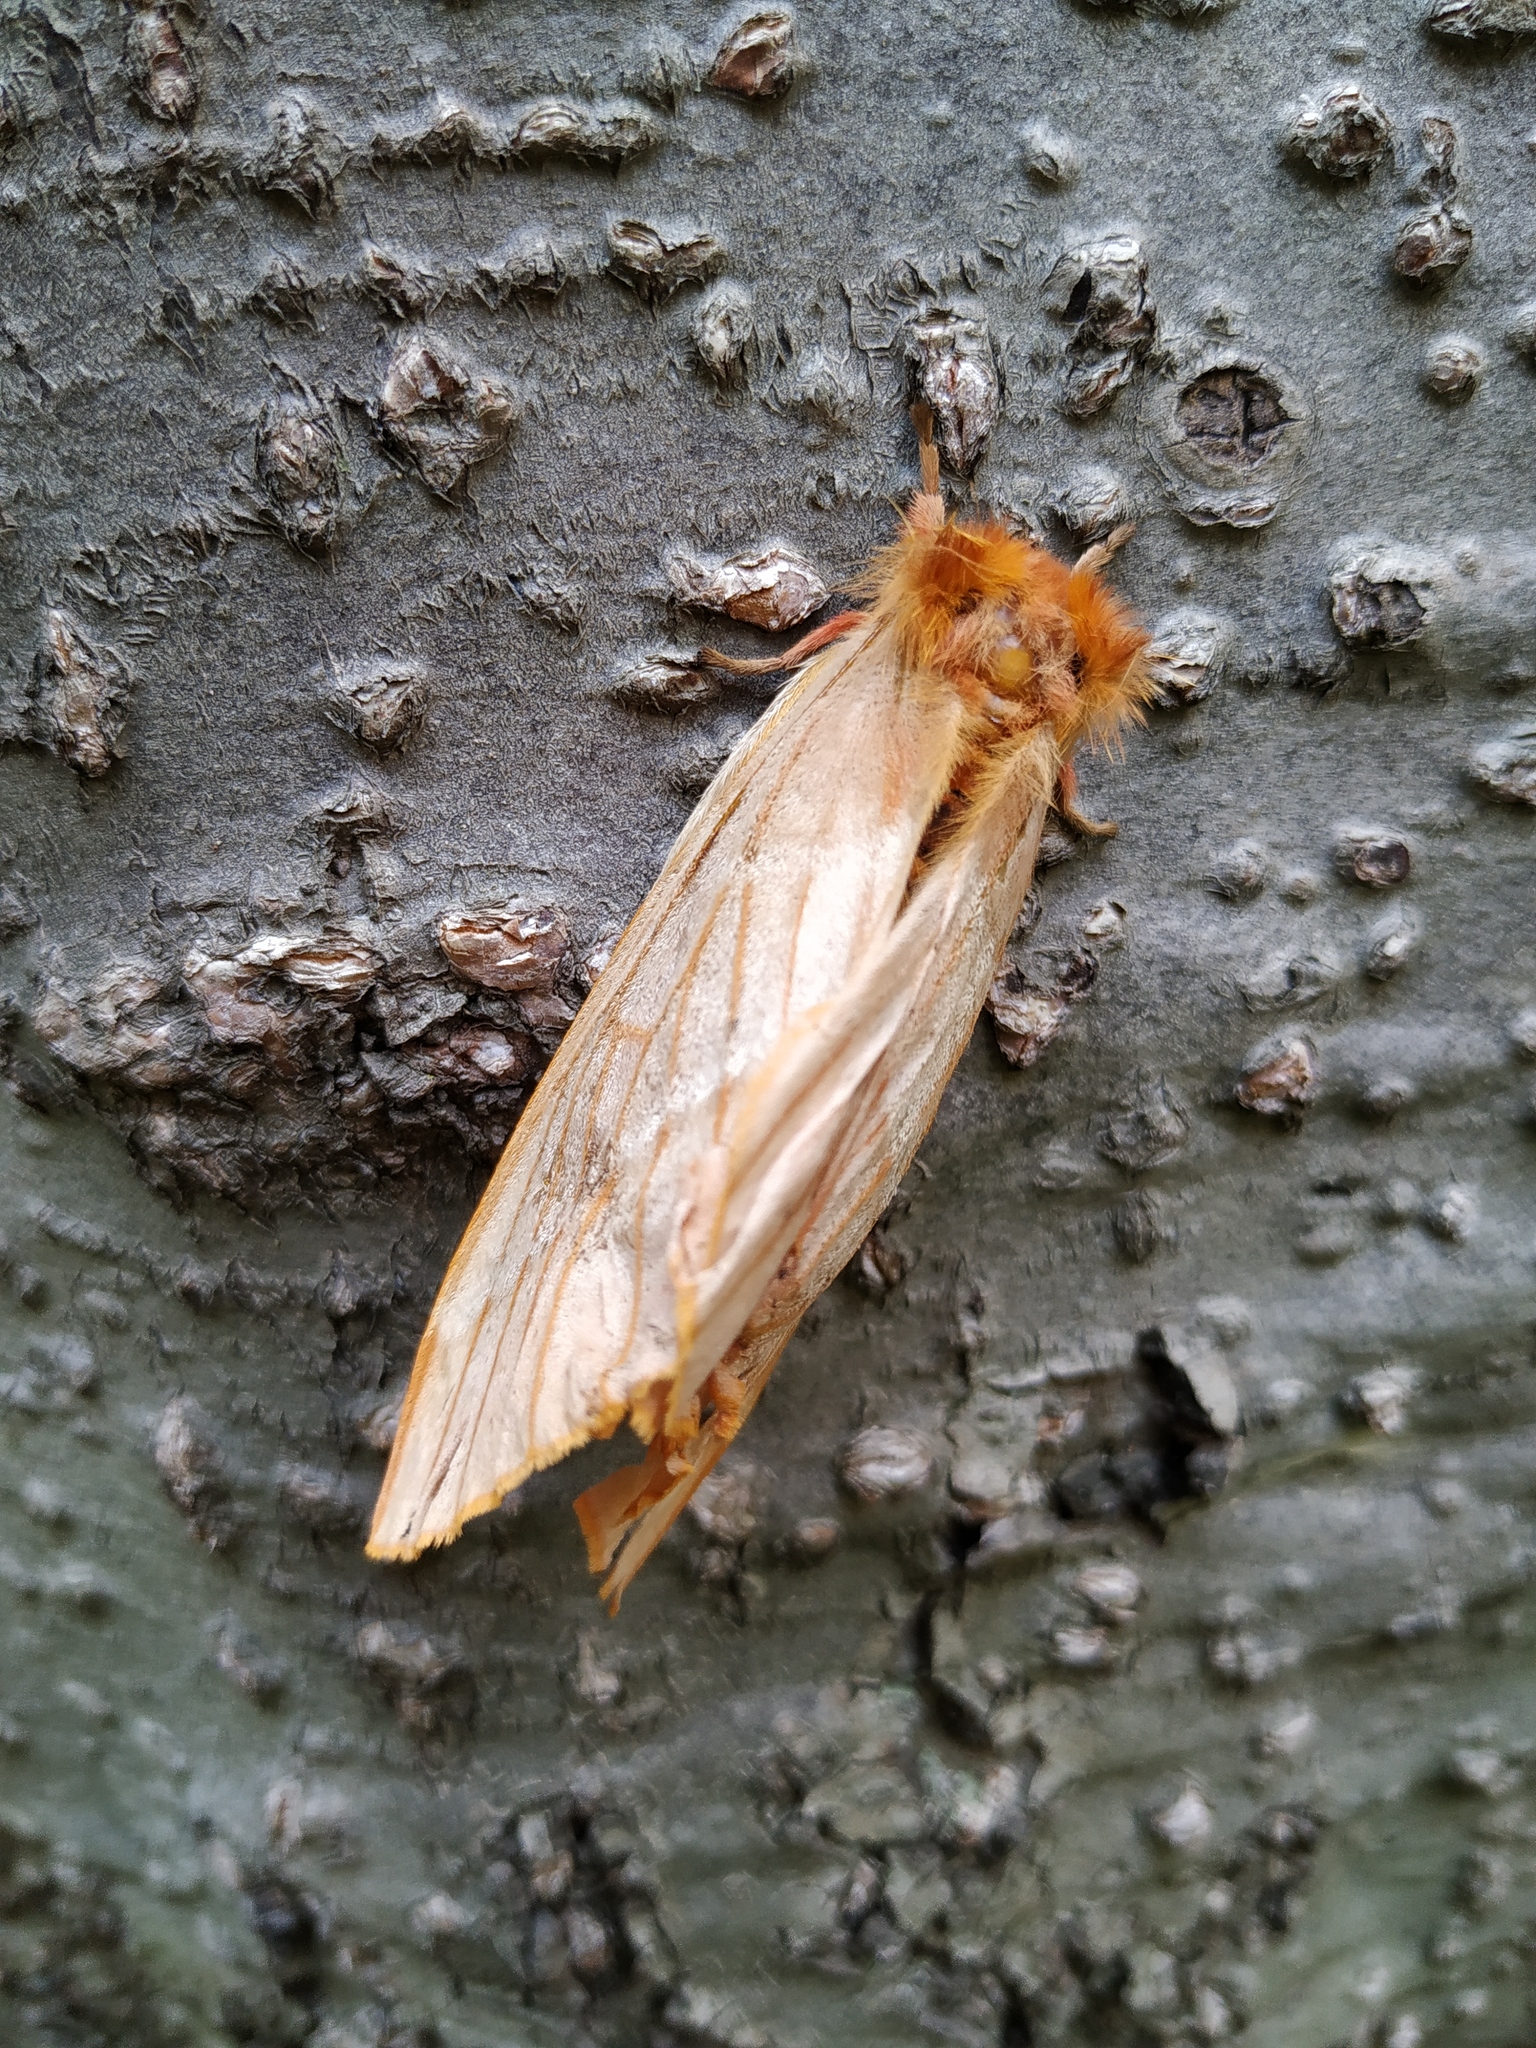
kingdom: Animalia
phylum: Arthropoda
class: Insecta
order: Lepidoptera
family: Saturniidae
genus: Lemaireodirphia
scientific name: Lemaireodirphia lasiocampina
